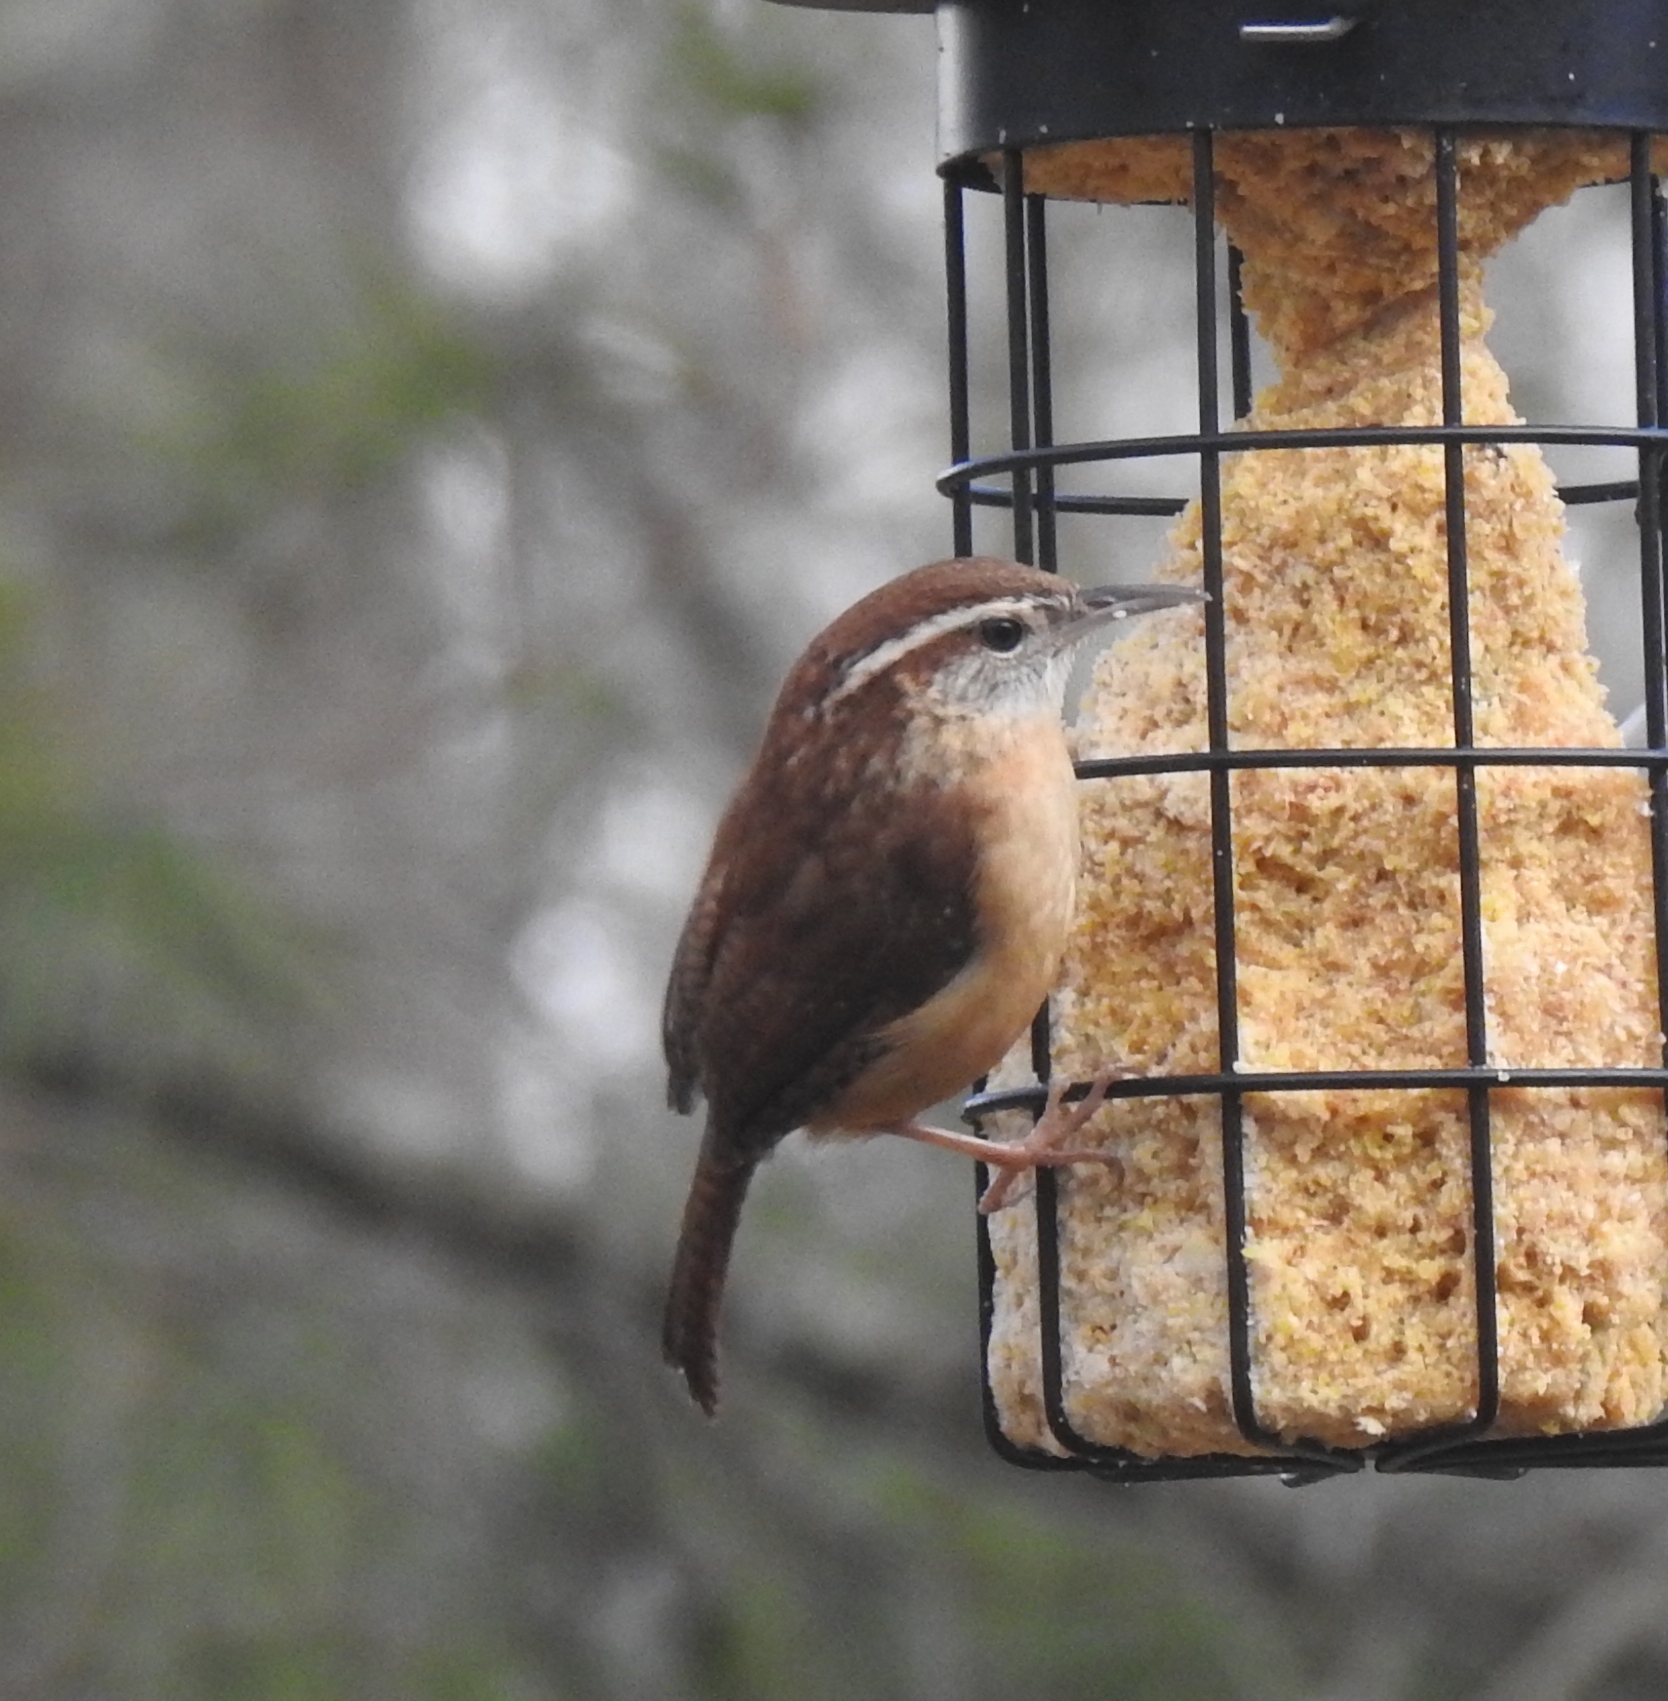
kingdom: Animalia
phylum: Chordata
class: Aves
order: Passeriformes
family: Troglodytidae
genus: Thryothorus
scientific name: Thryothorus ludovicianus
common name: Carolina wren
